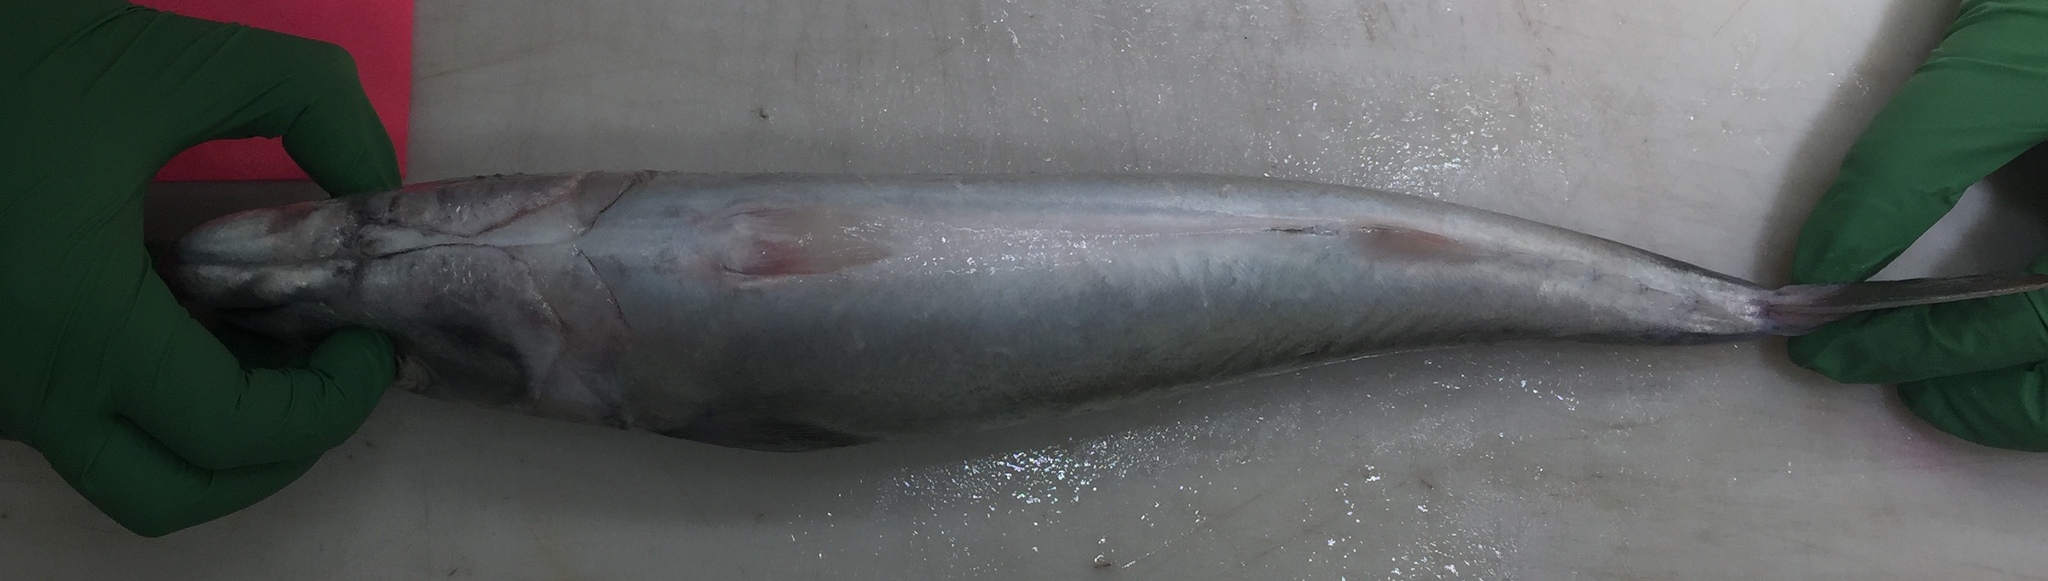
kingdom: Animalia
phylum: Chordata
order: Perciformes
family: Scombridae
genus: Scomber
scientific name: Scomber japonicus
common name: Chub mackerel
